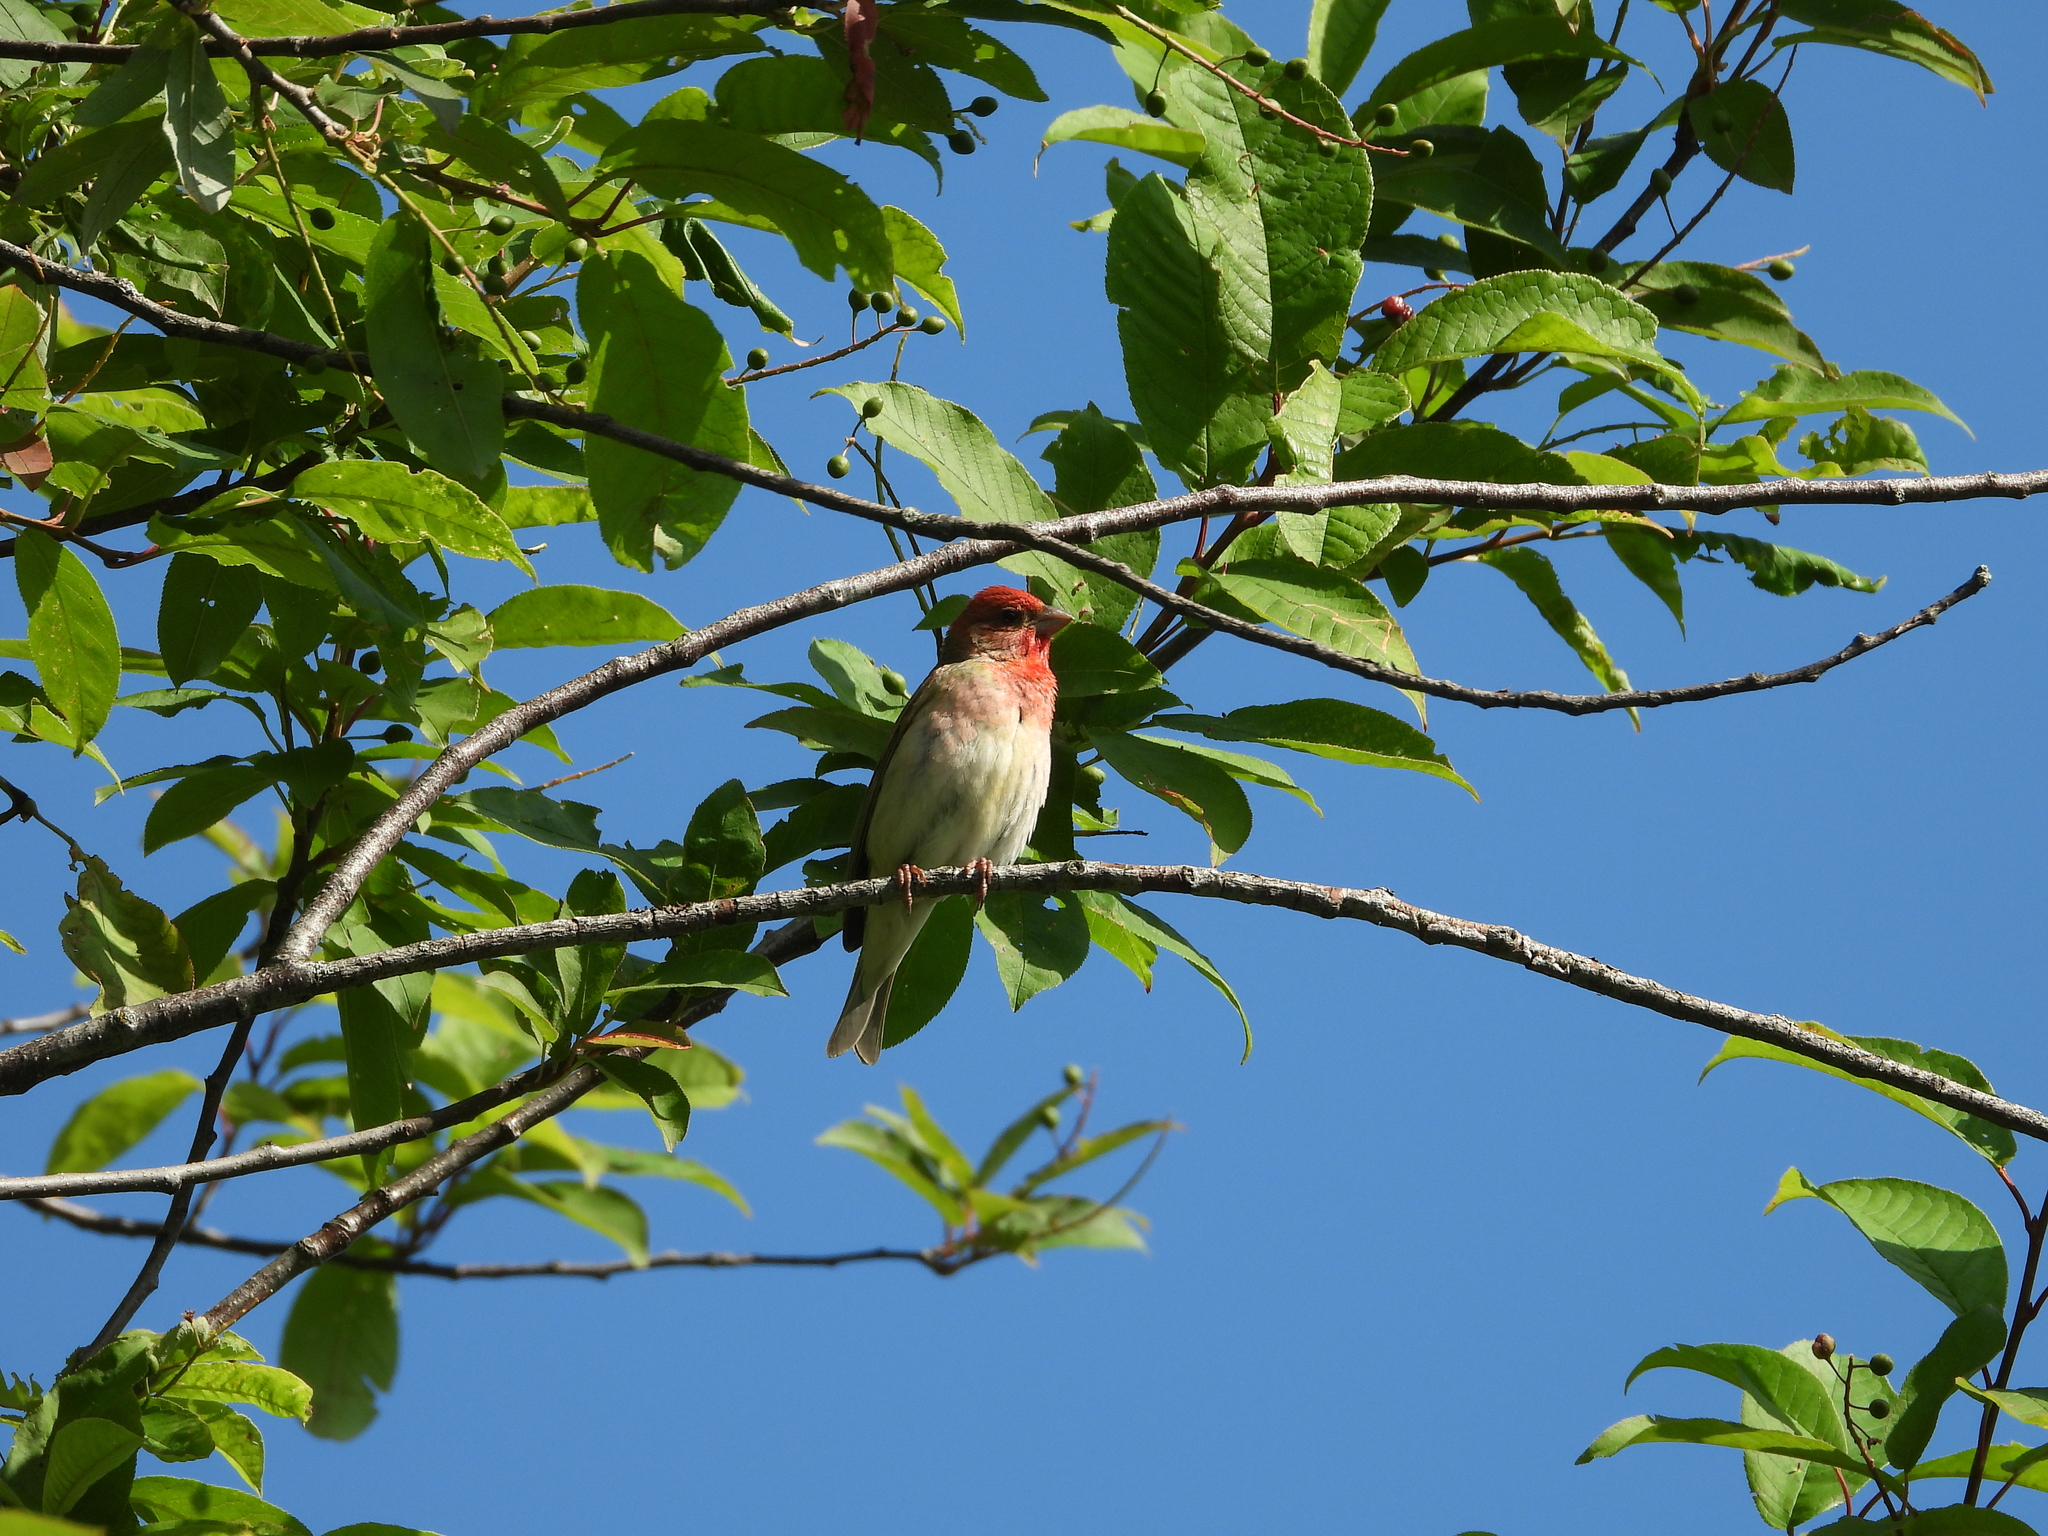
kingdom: Animalia
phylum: Chordata
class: Aves
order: Passeriformes
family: Fringillidae
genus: Carpodacus
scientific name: Carpodacus erythrinus
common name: Common rosefinch
